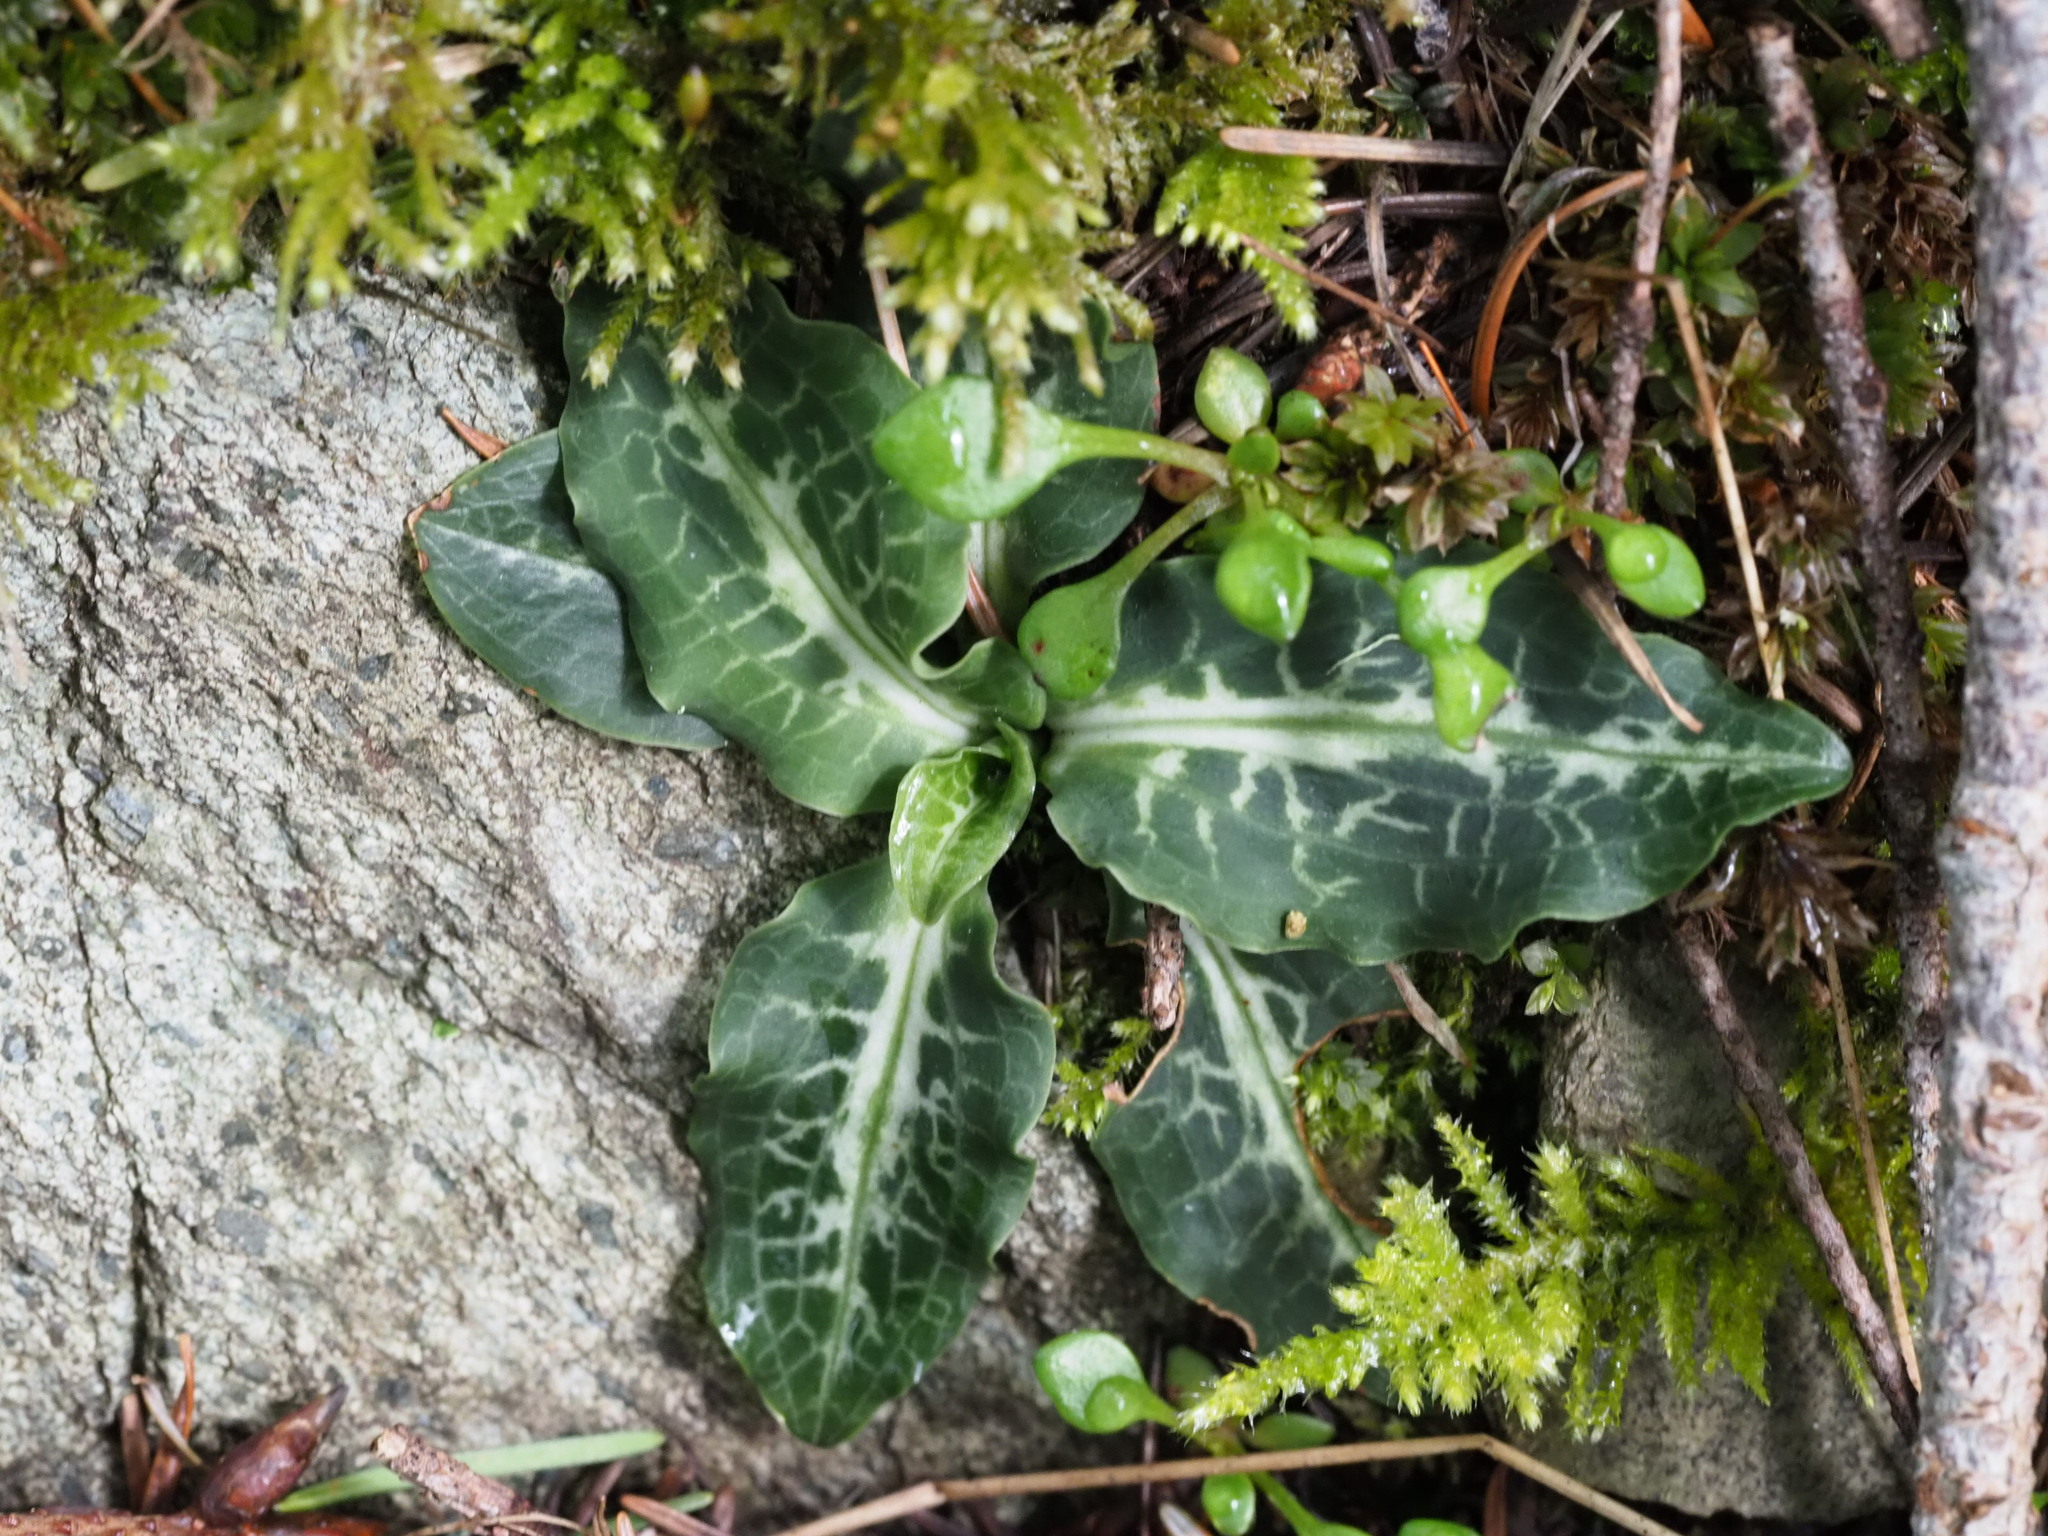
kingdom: Plantae
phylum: Tracheophyta
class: Liliopsida
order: Asparagales
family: Orchidaceae
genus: Goodyera
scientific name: Goodyera oblongifolia
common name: Giant rattlesnake-plantain
